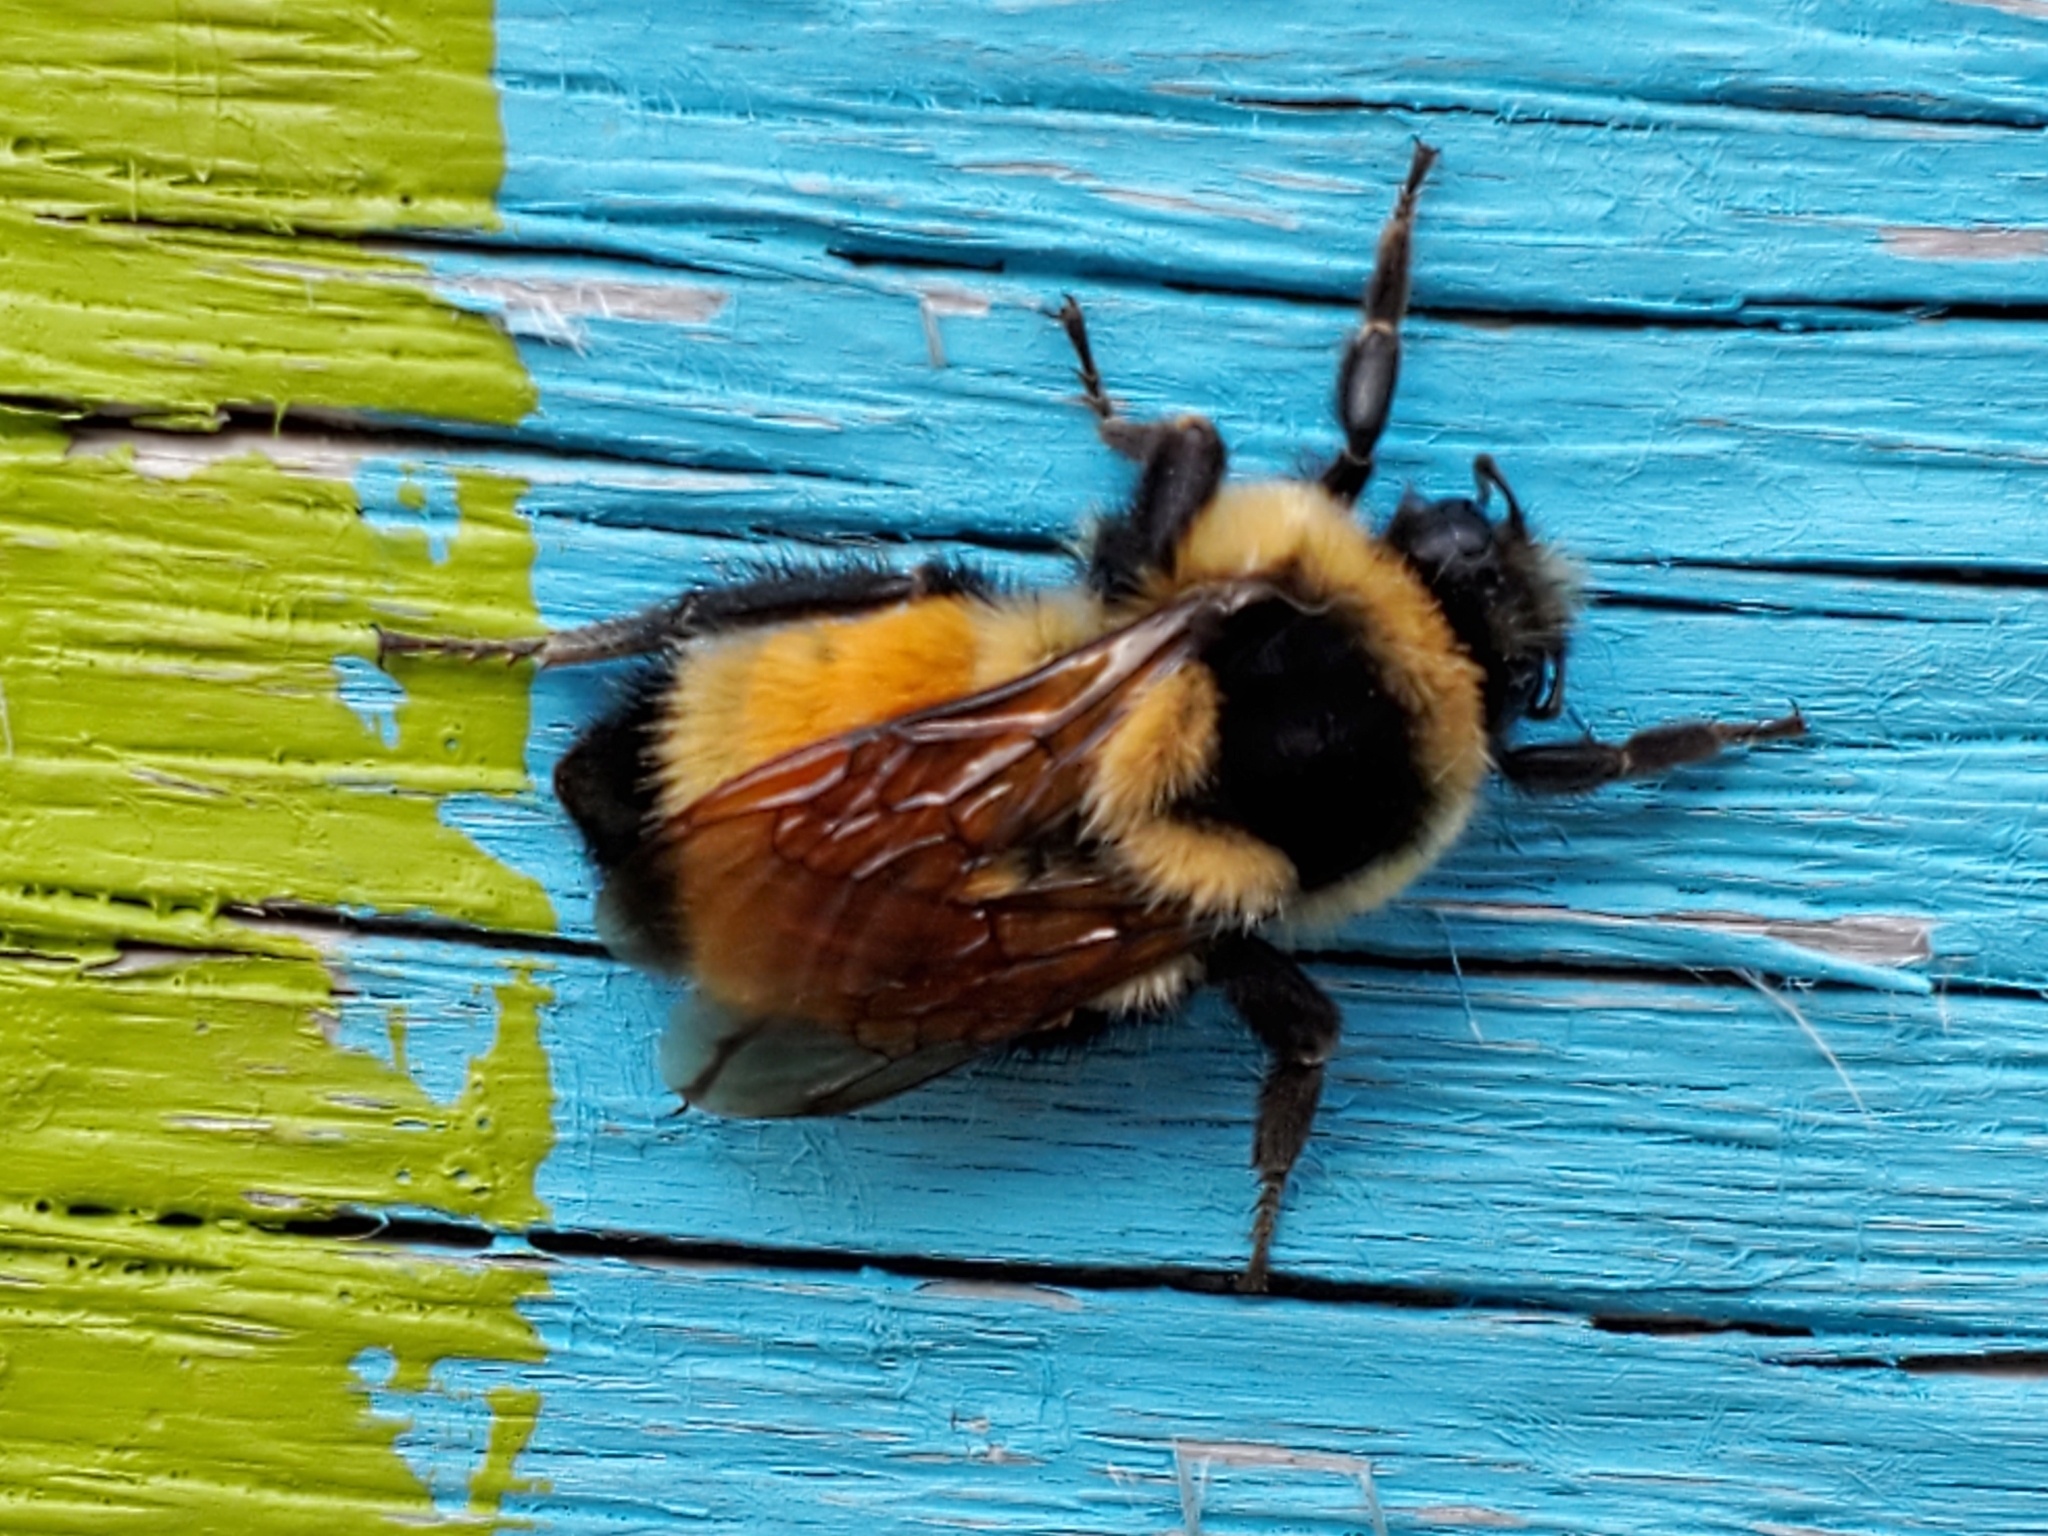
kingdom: Animalia
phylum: Arthropoda
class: Insecta
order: Hymenoptera
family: Apidae
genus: Bombus
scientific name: Bombus ternarius
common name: Tri-colored bumble bee
